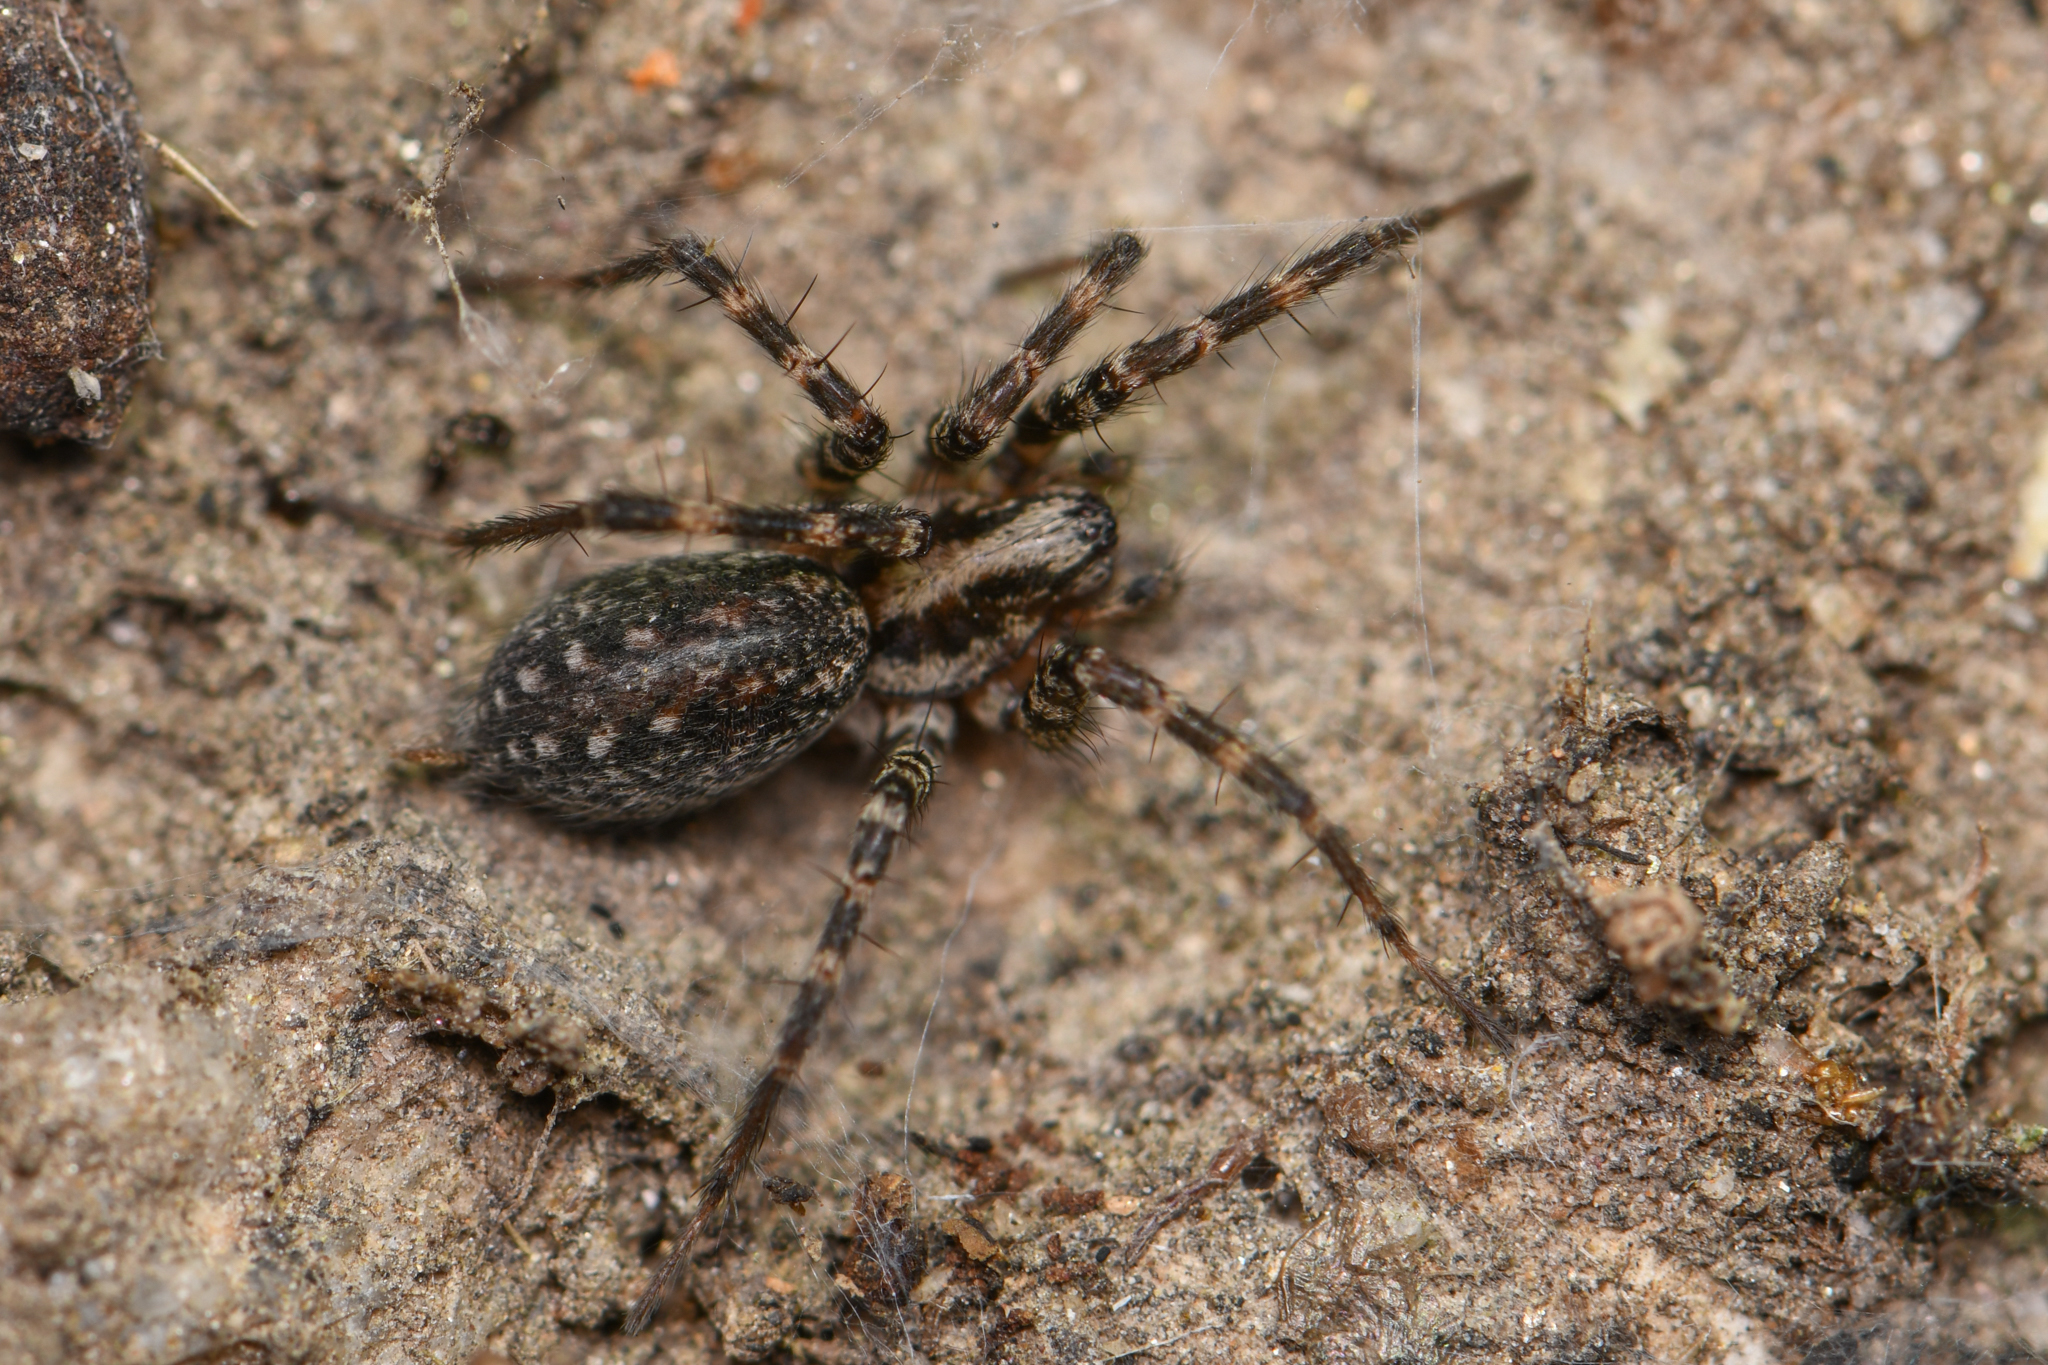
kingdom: Animalia
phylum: Arthropoda
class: Arachnida
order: Araneae
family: Agelenidae
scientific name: Agelenidae
